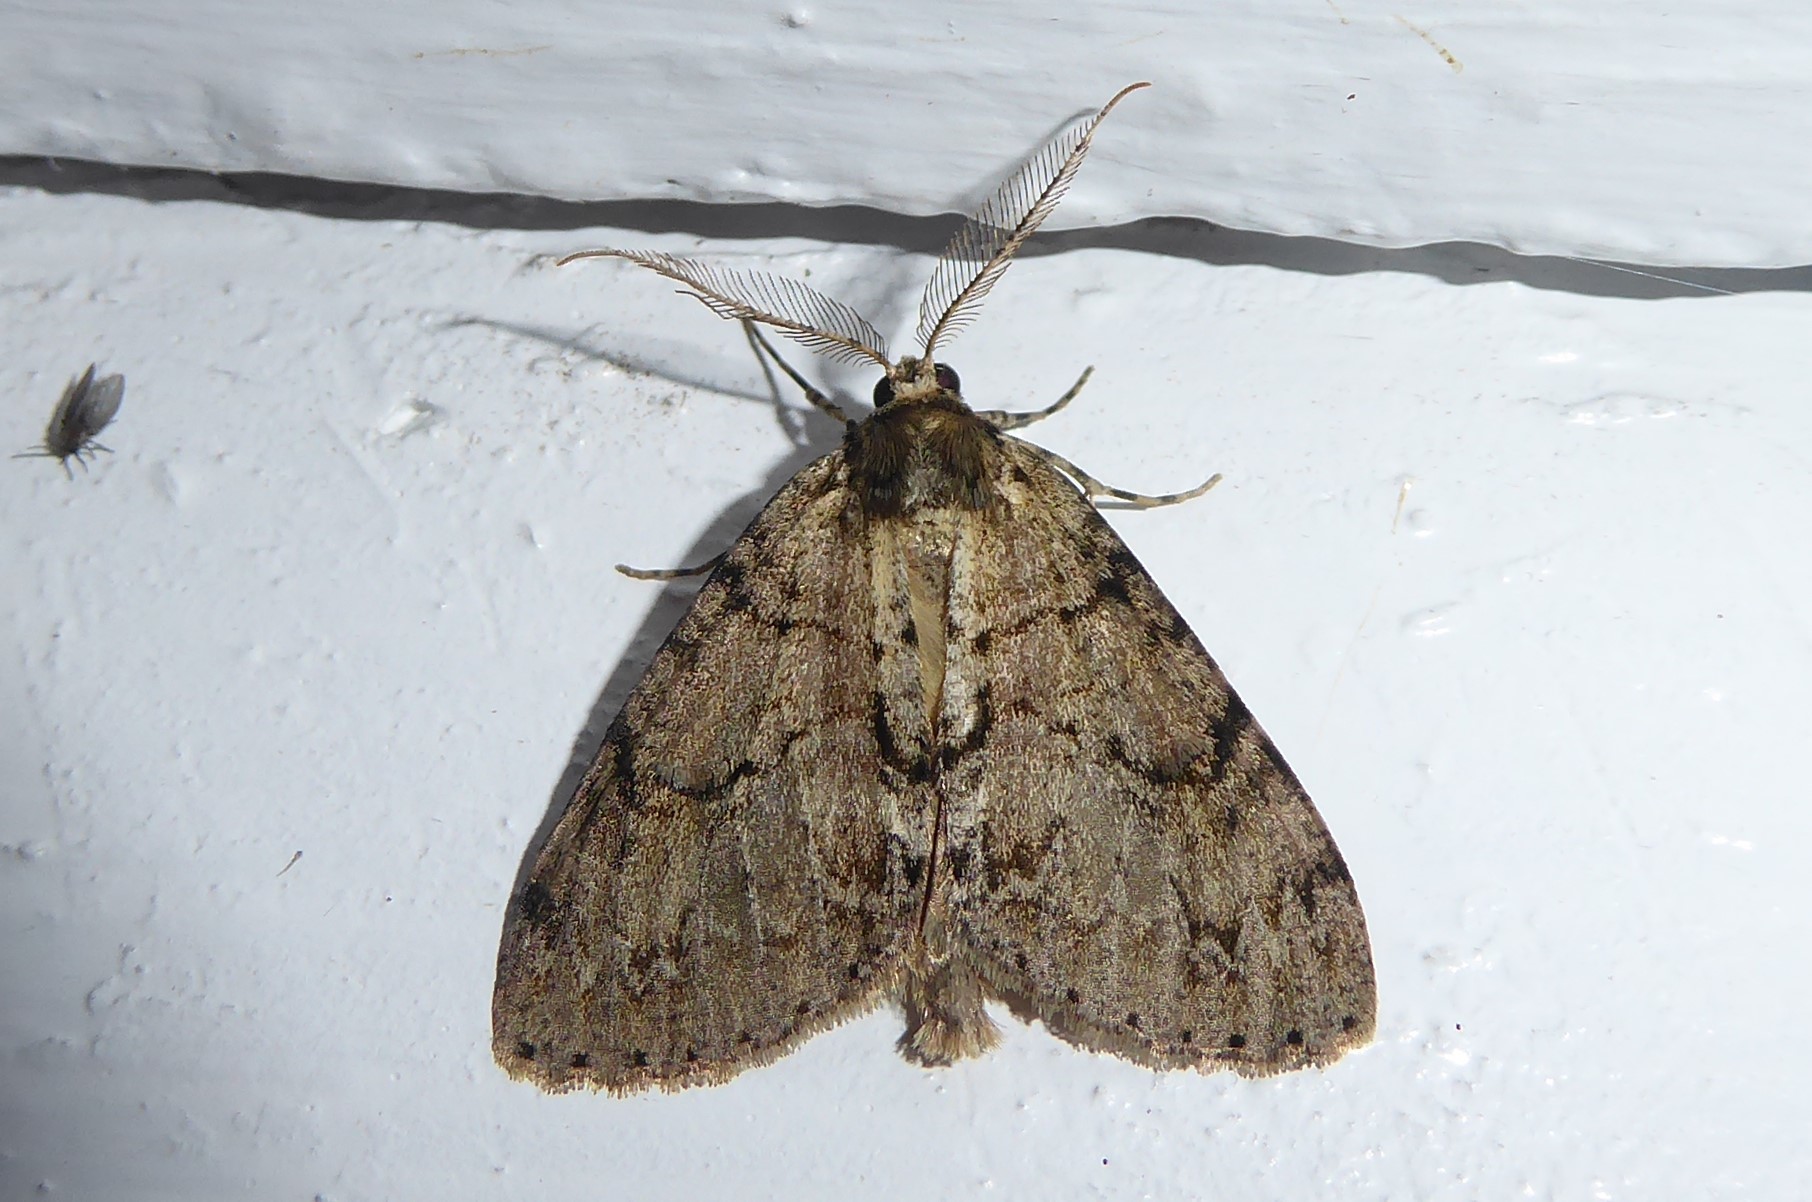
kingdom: Animalia
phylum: Arthropoda
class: Insecta
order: Lepidoptera
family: Geometridae
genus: Pseudocoremia
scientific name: Pseudocoremia suavis
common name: Common forest looper
